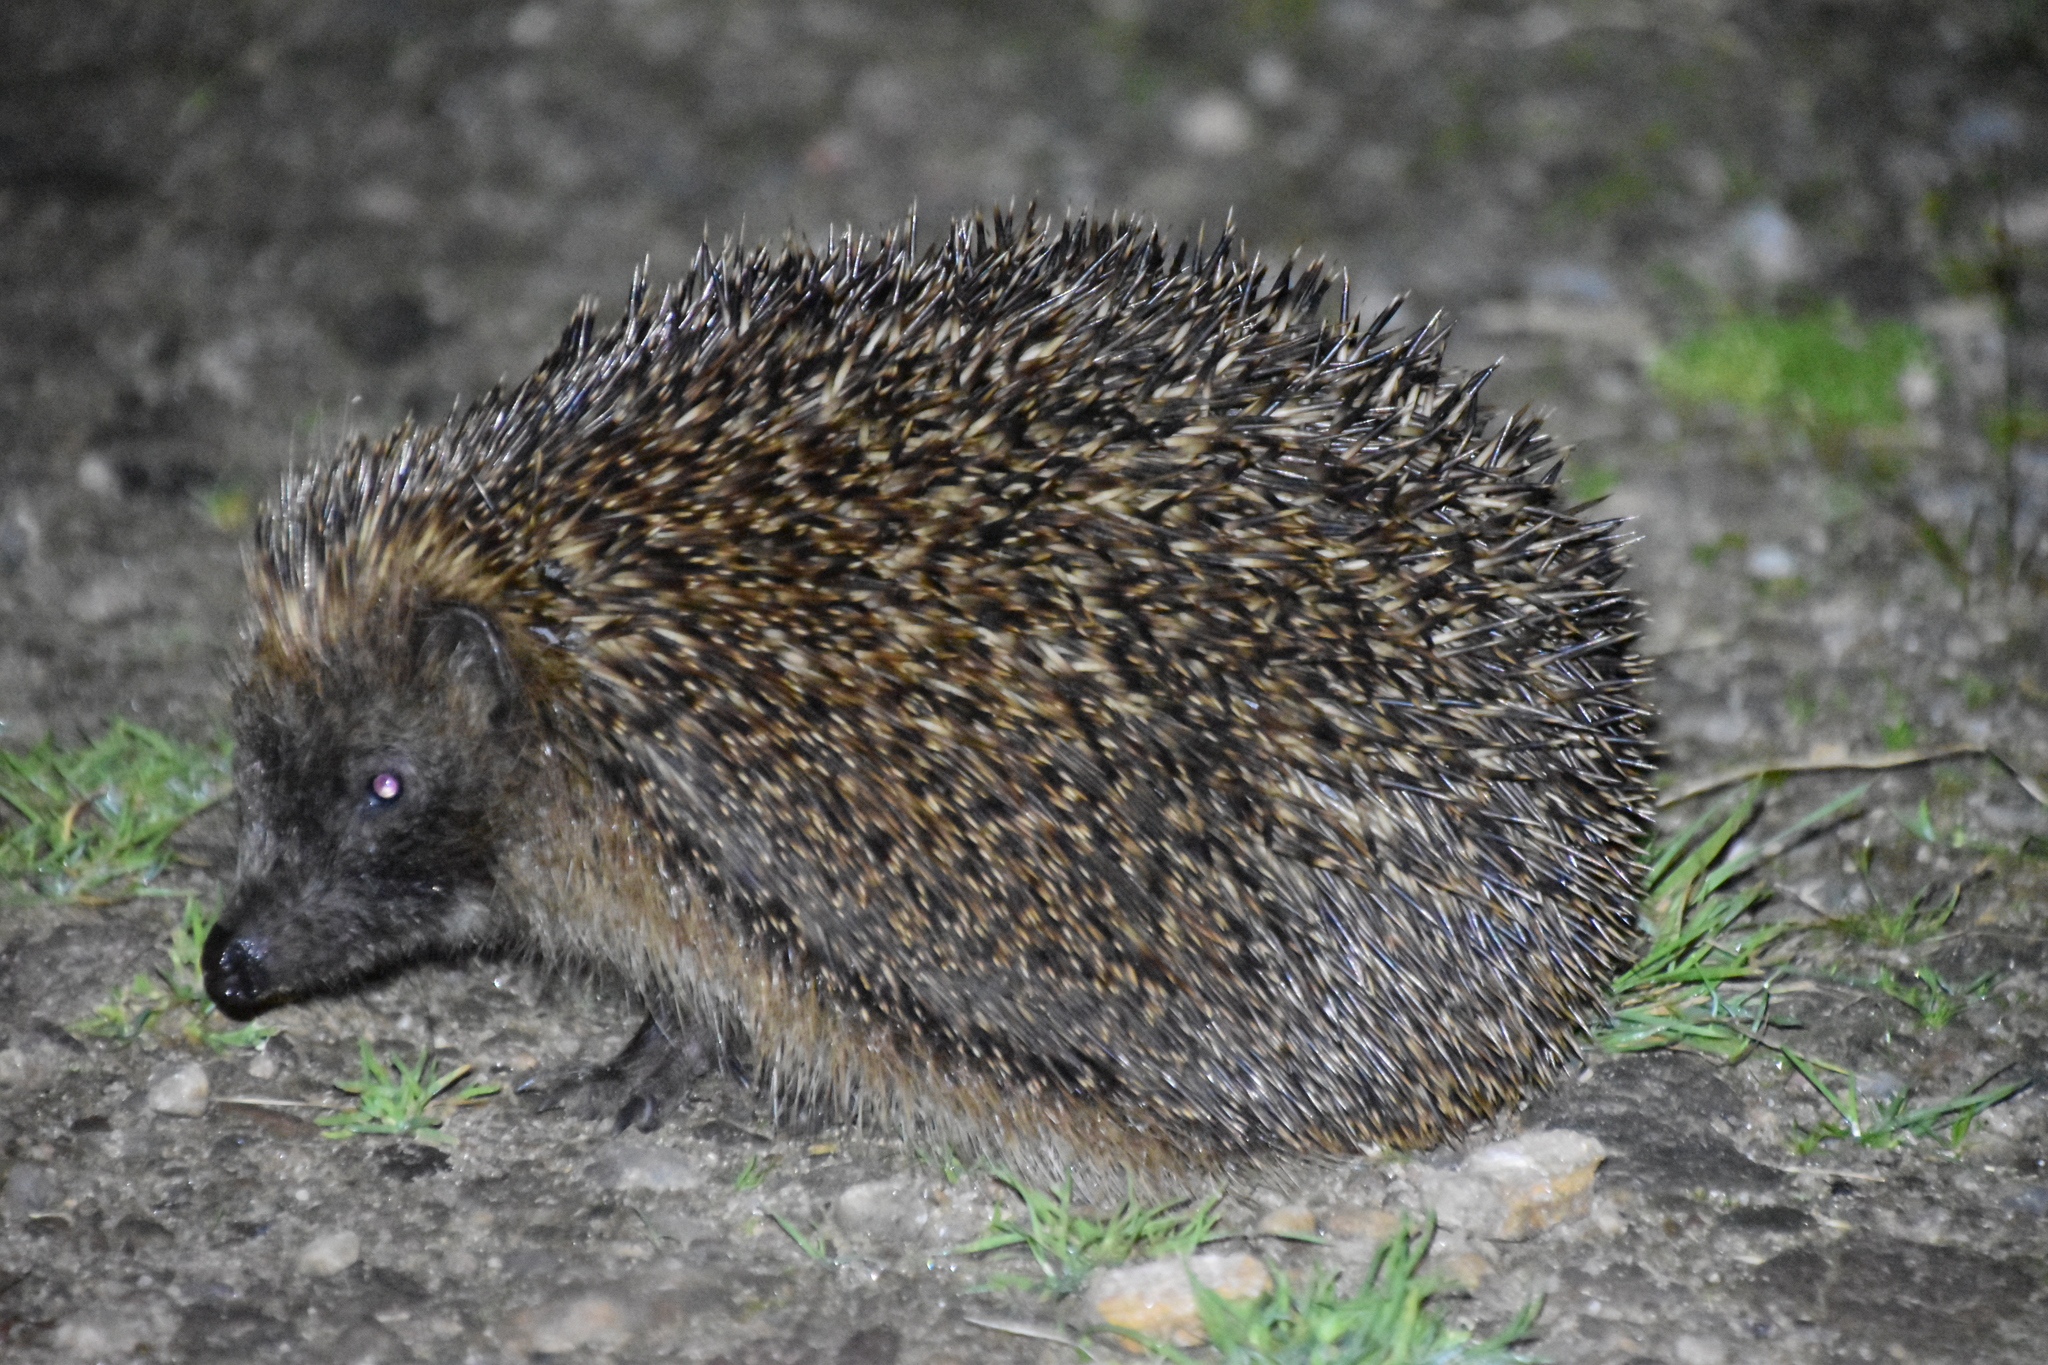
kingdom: Animalia
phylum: Chordata
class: Mammalia
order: Erinaceomorpha
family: Erinaceidae
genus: Erinaceus
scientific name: Erinaceus europaeus
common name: West european hedgehog
